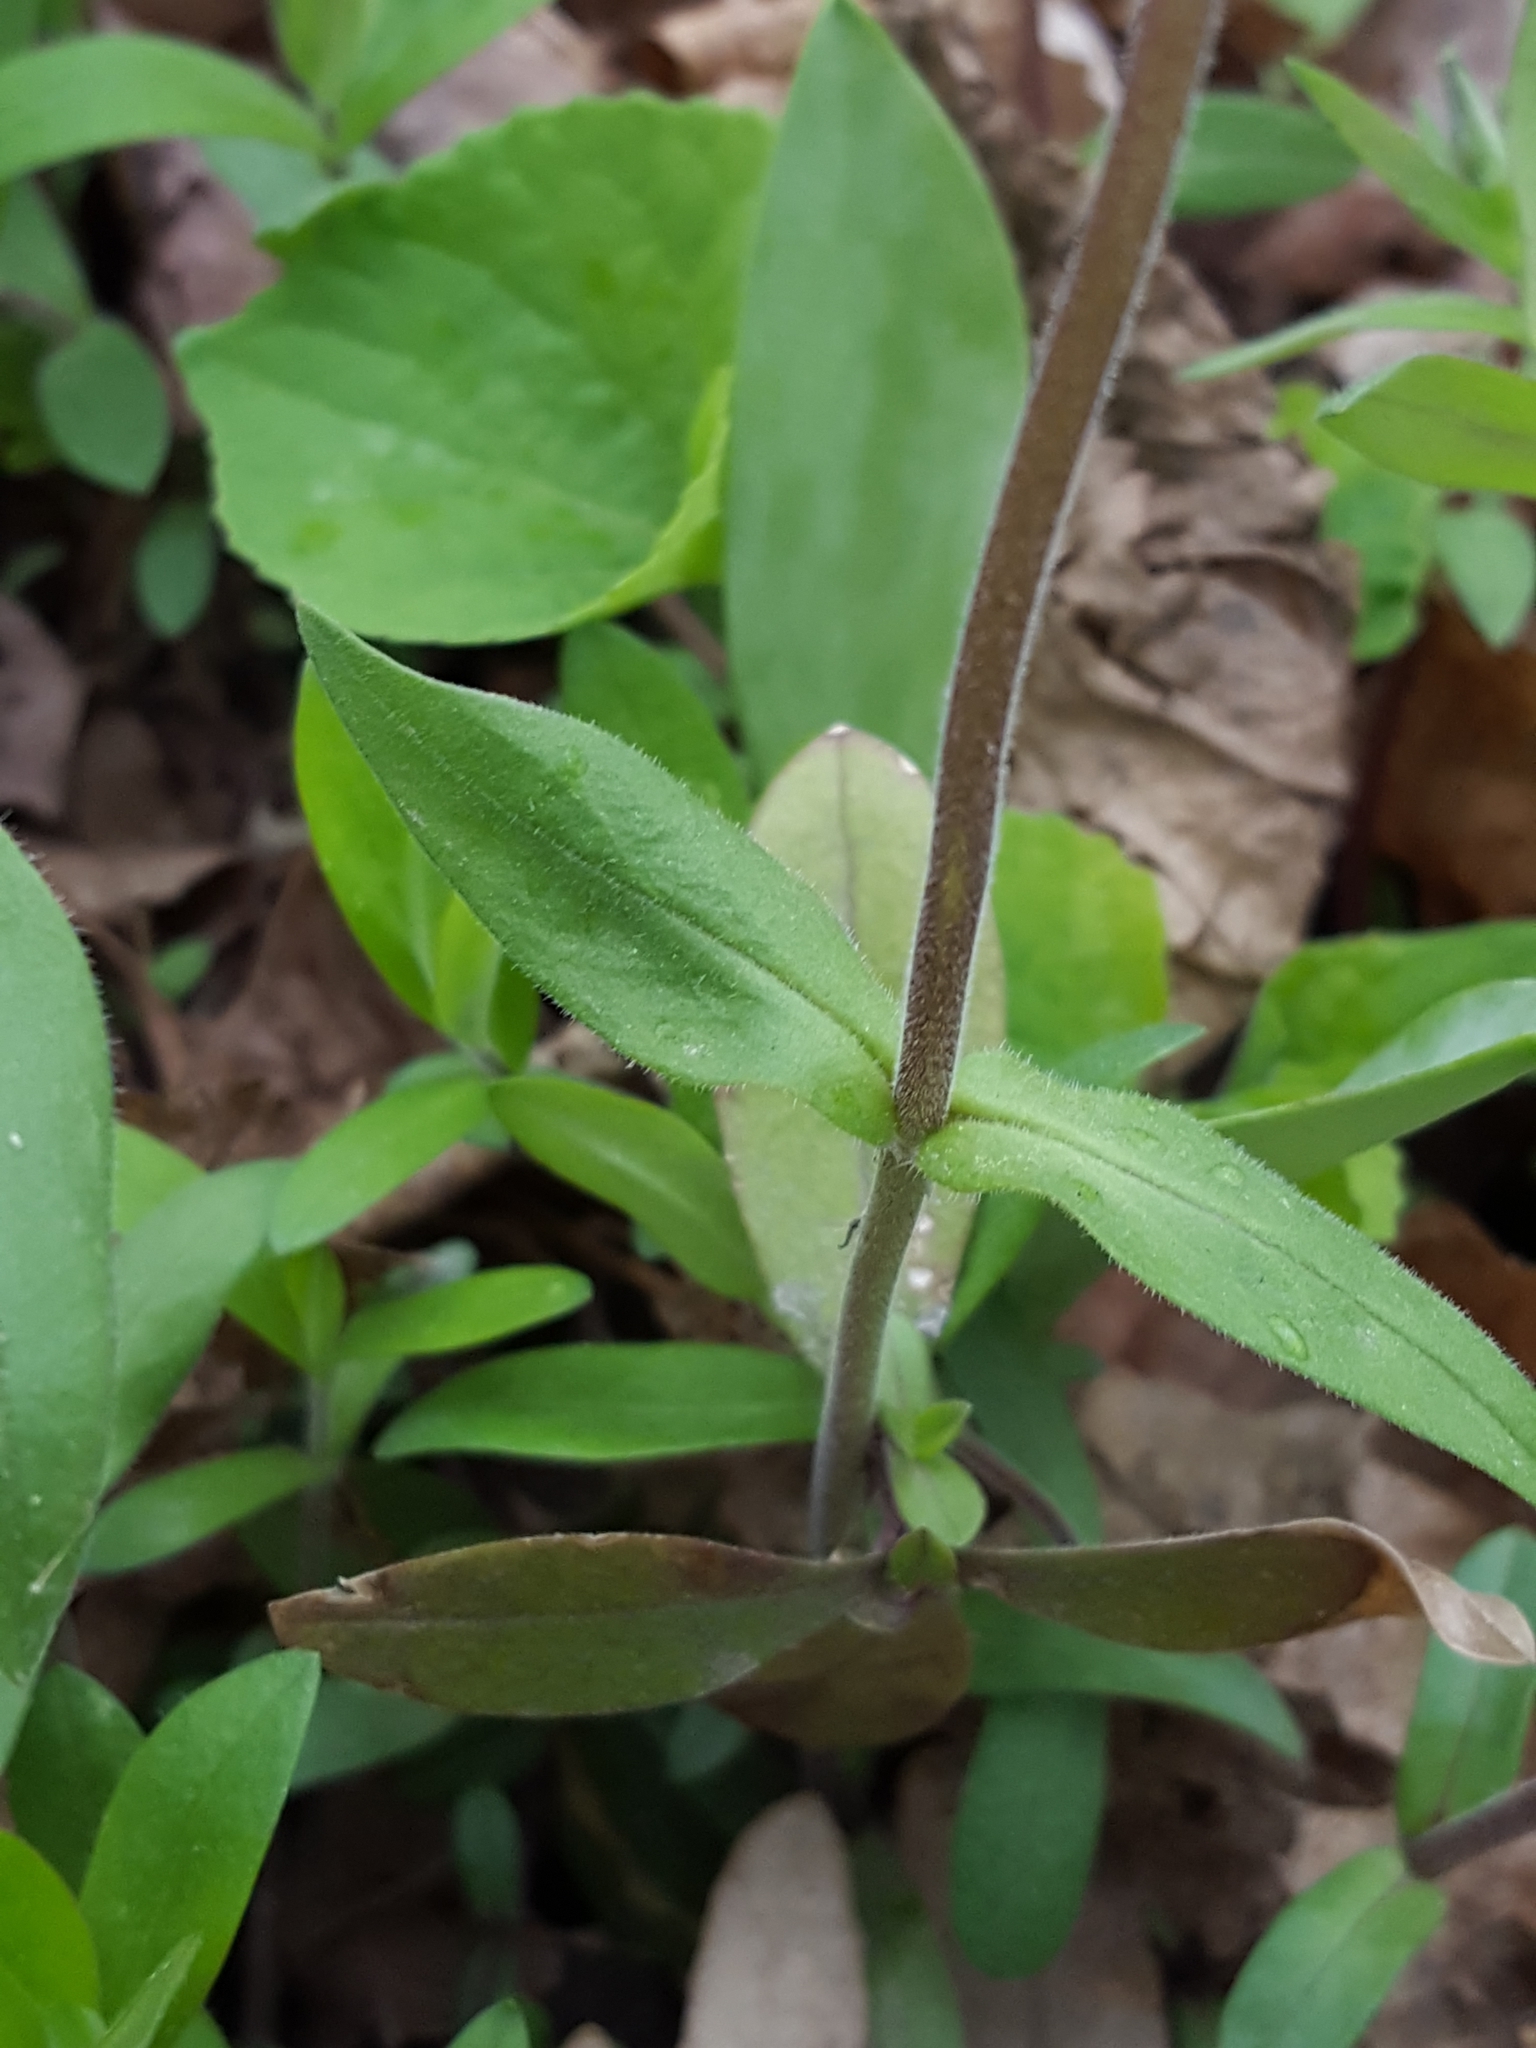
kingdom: Plantae
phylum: Tracheophyta
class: Magnoliopsida
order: Ericales
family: Polemoniaceae
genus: Phlox
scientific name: Phlox divaricata
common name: Blue phlox
